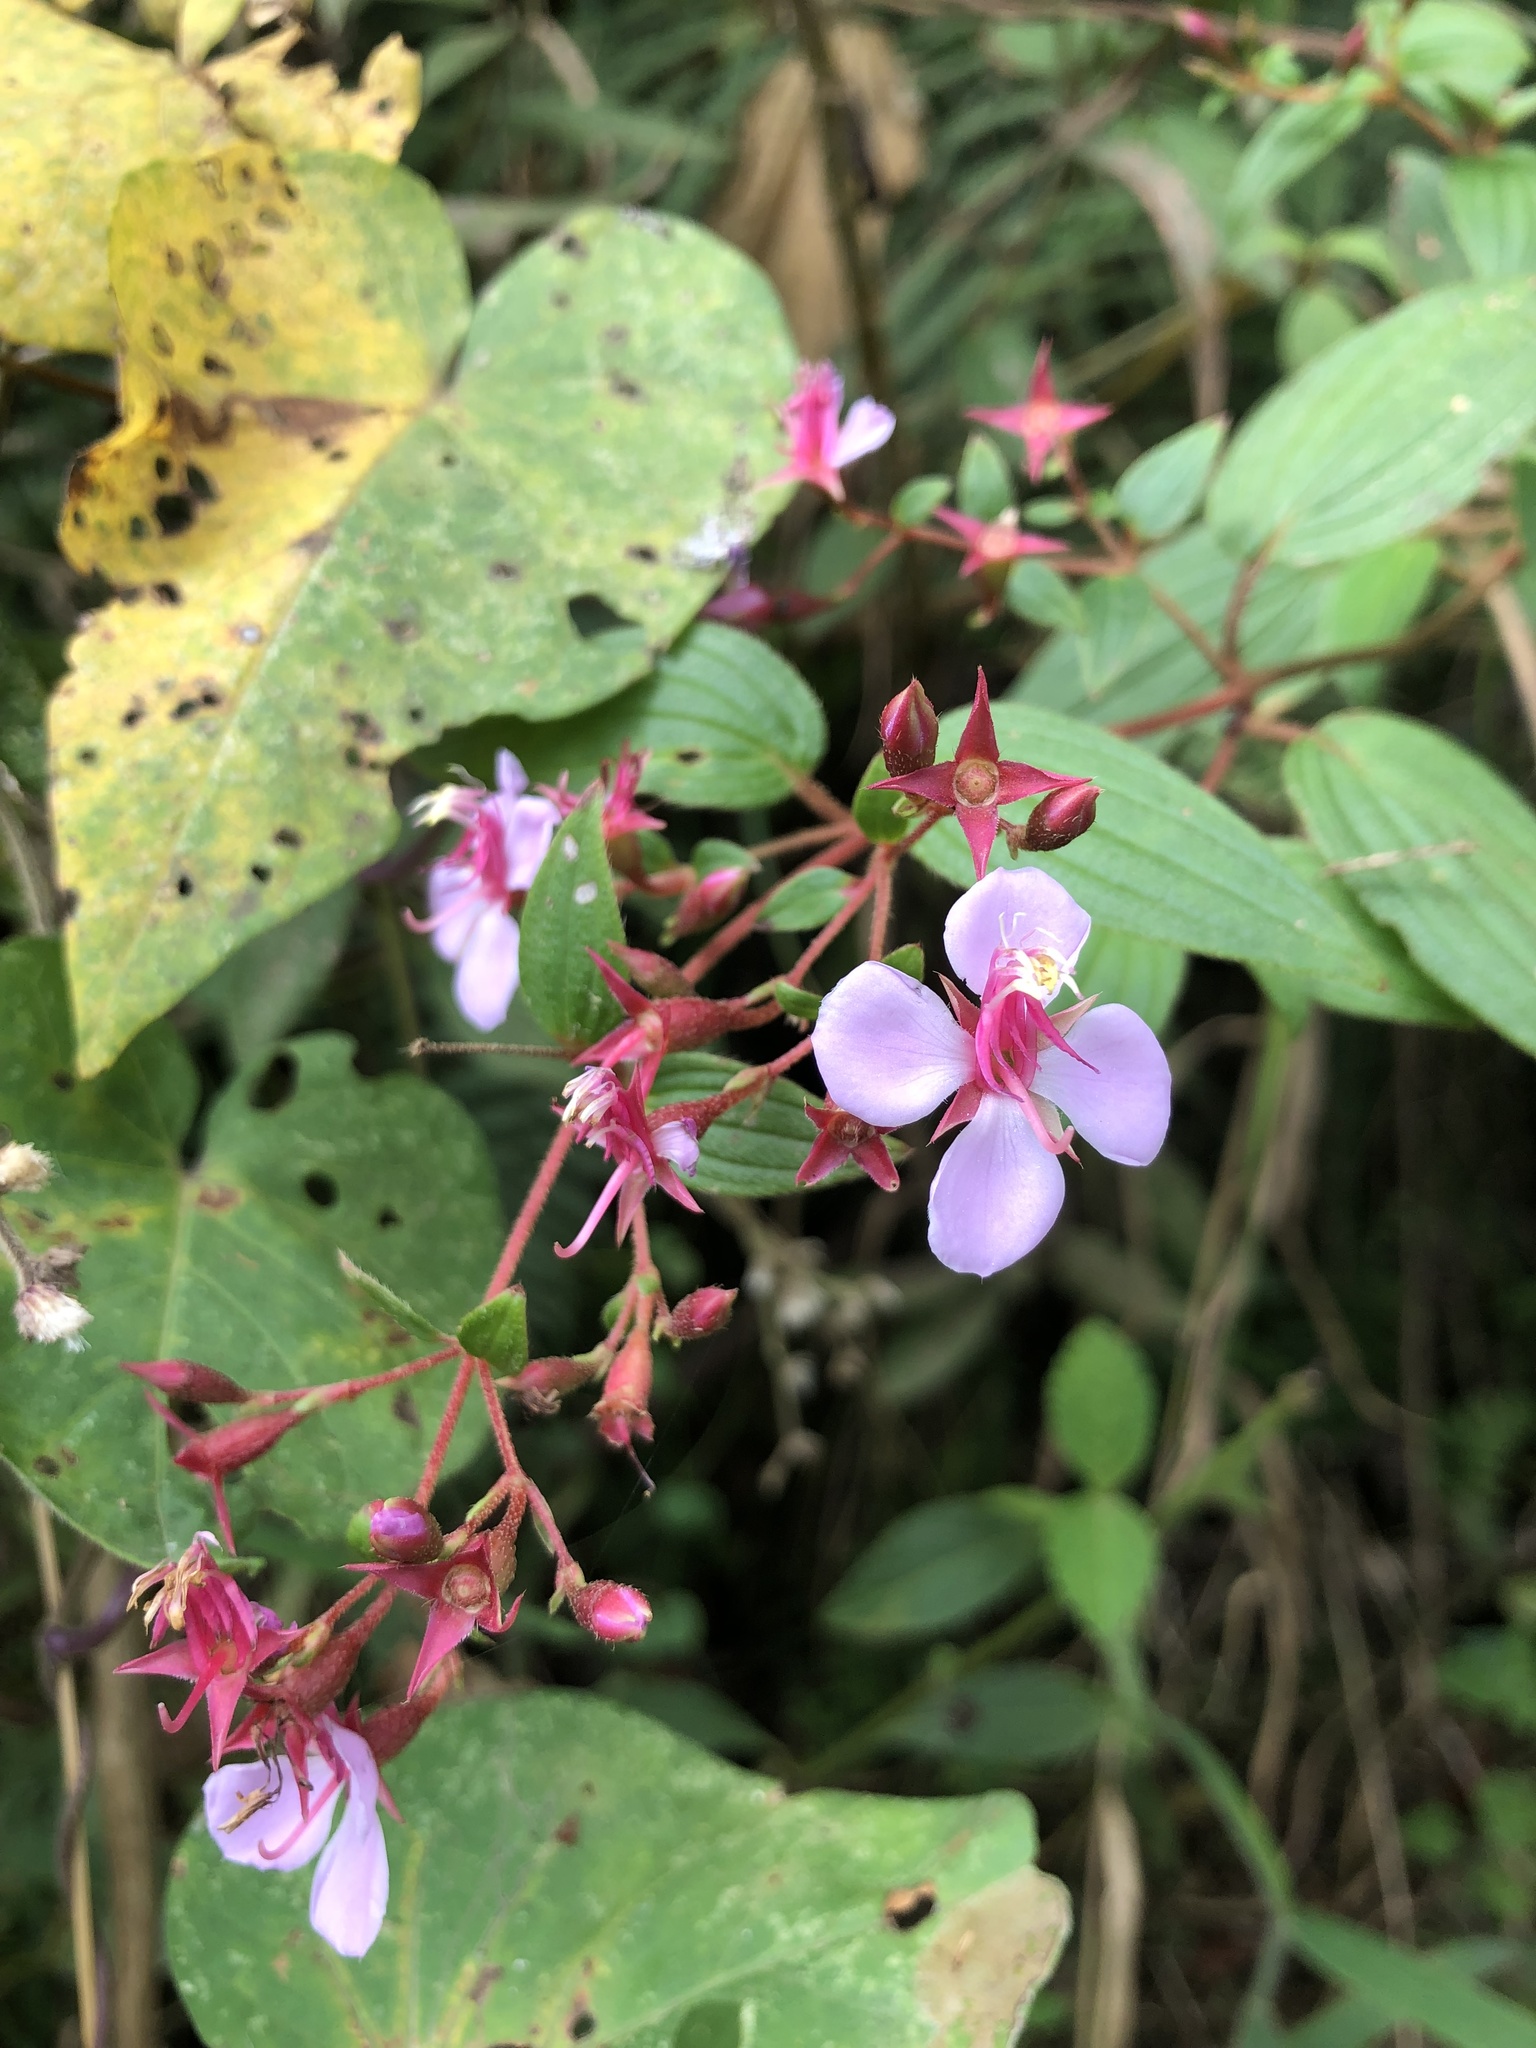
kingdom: Plantae
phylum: Tracheophyta
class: Magnoliopsida
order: Myrtales
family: Melastomataceae
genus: Monochaetum
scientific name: Monochaetum multiflorum
